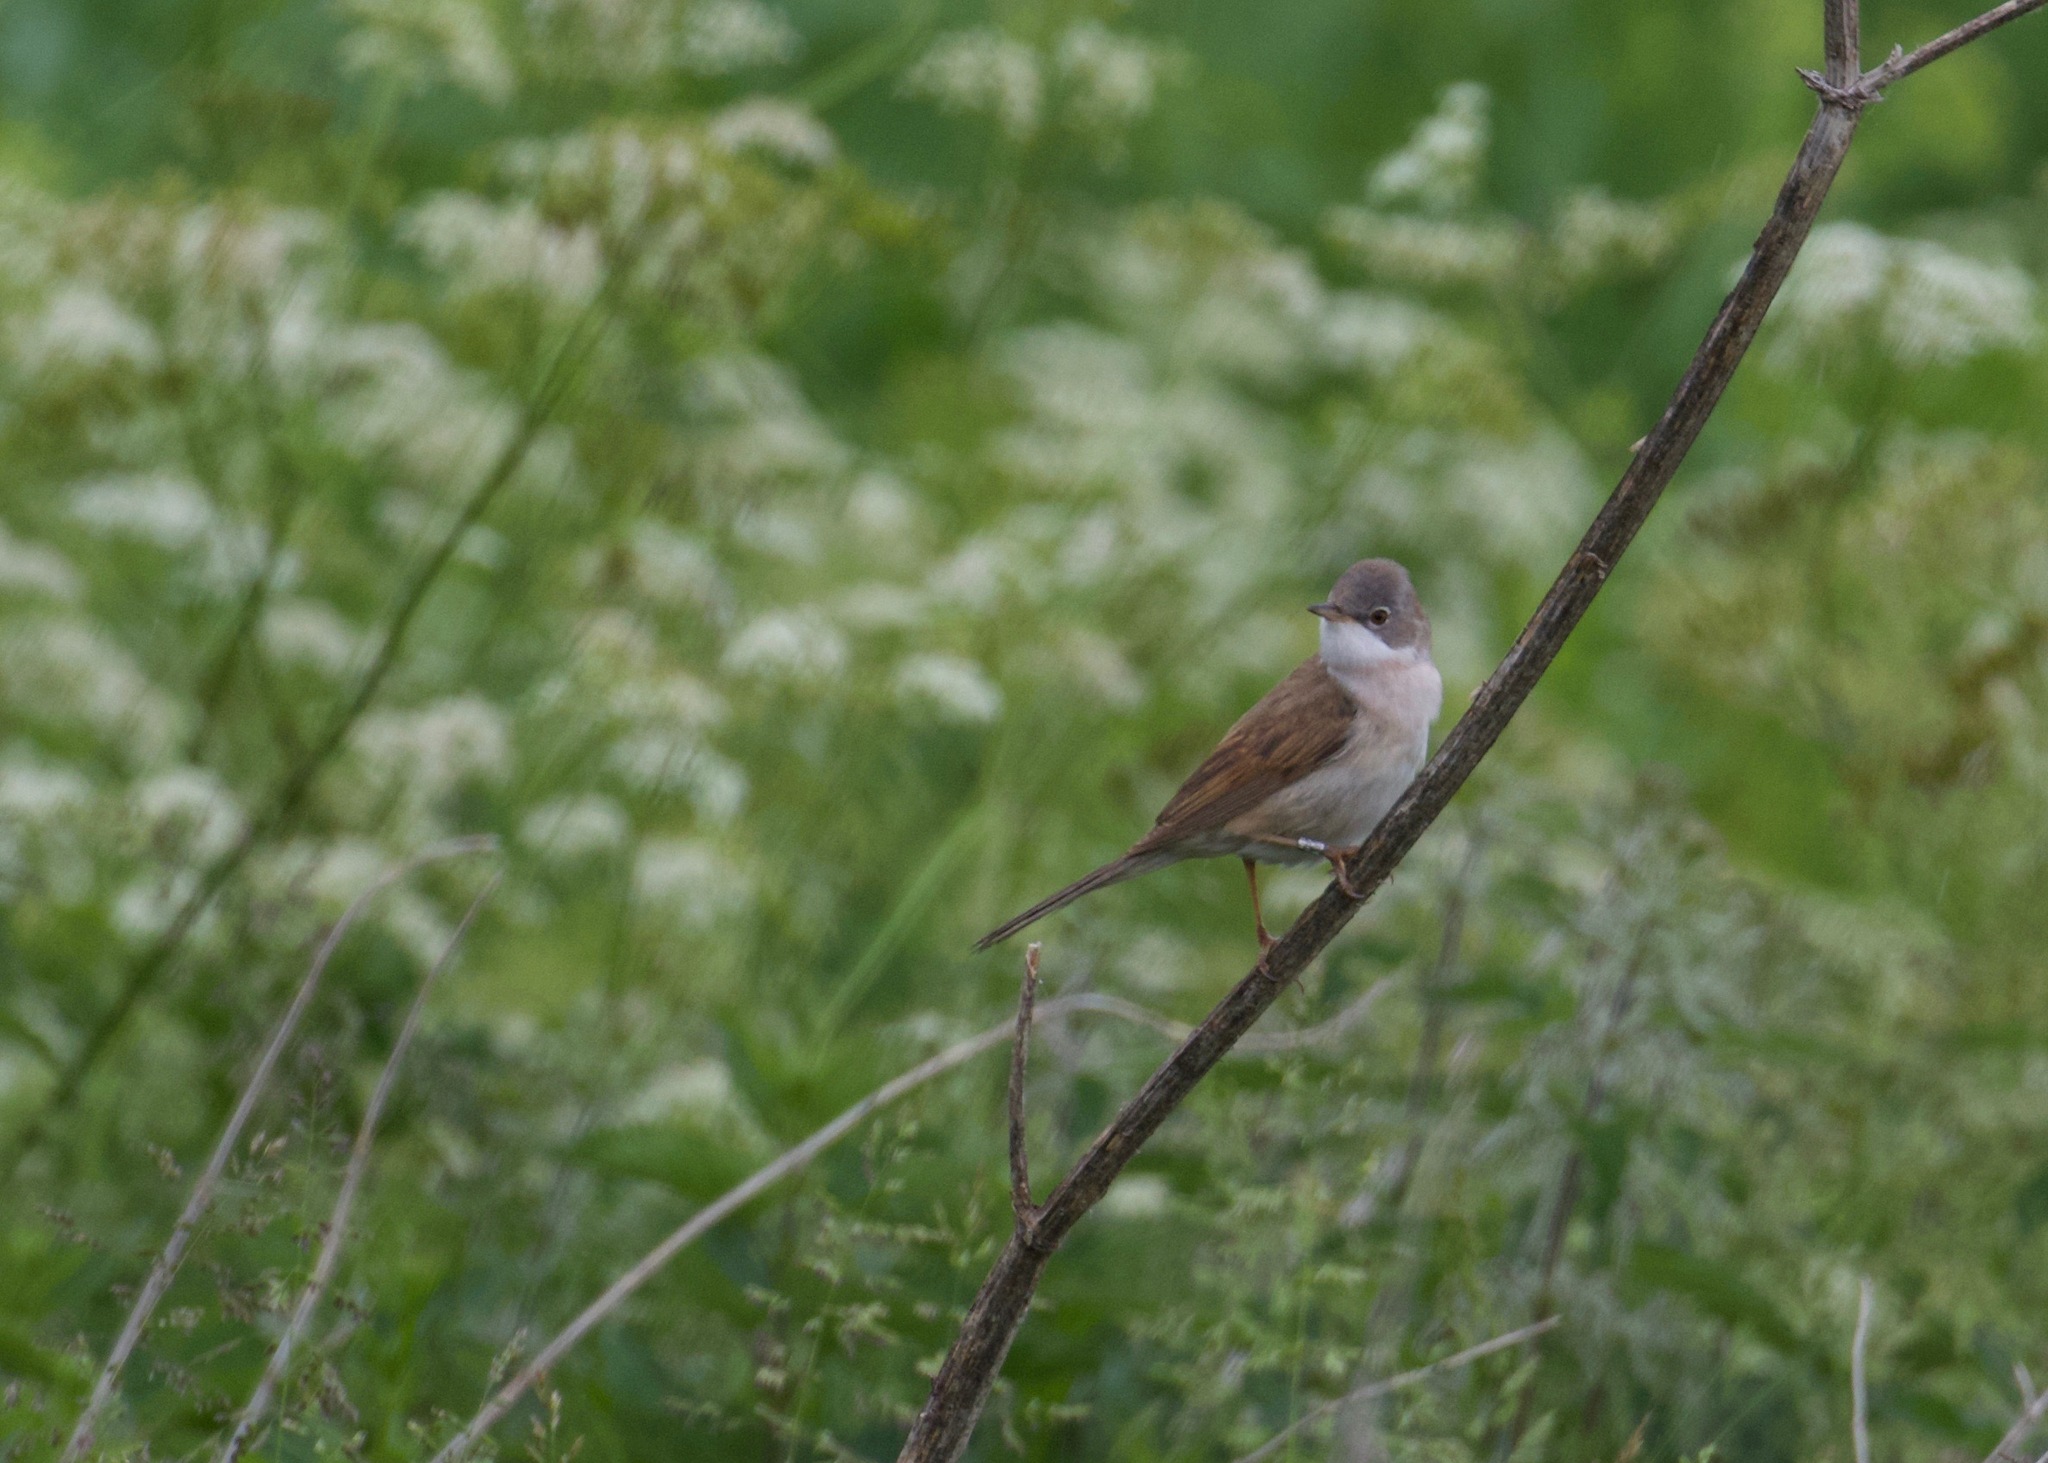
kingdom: Animalia
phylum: Chordata
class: Aves
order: Passeriformes
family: Sylviidae
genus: Sylvia
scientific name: Sylvia communis
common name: Common whitethroat
